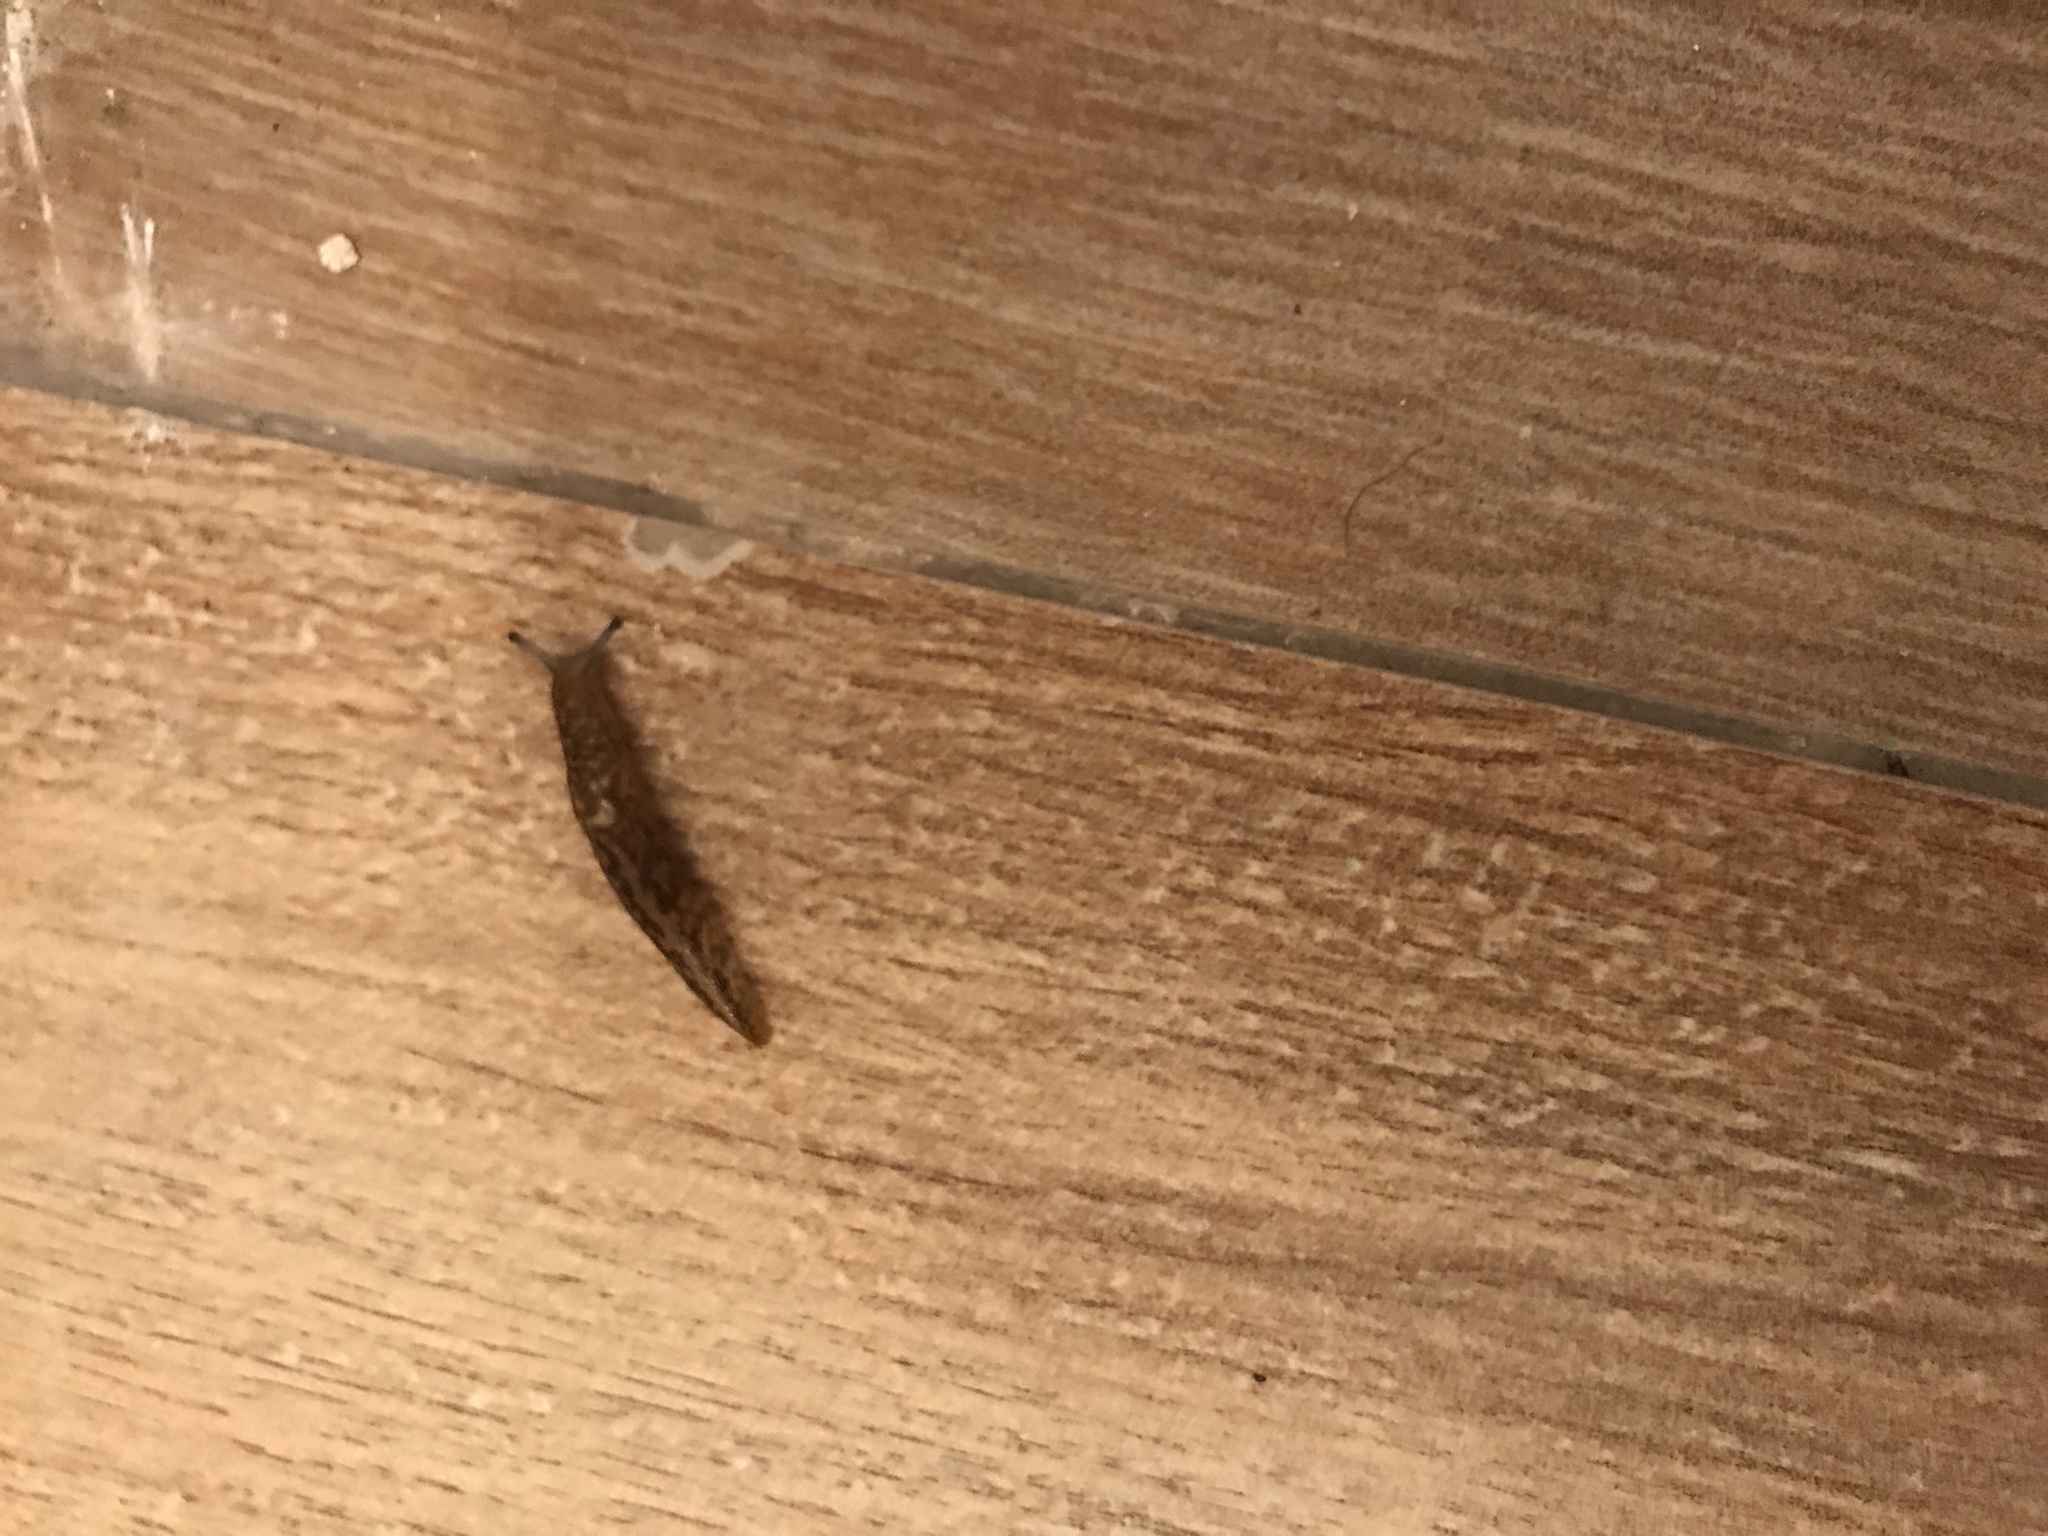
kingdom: Animalia
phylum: Mollusca
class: Gastropoda
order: Stylommatophora
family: Limacidae
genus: Limacus
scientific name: Limacus flavus
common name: Yellow gardenslug
